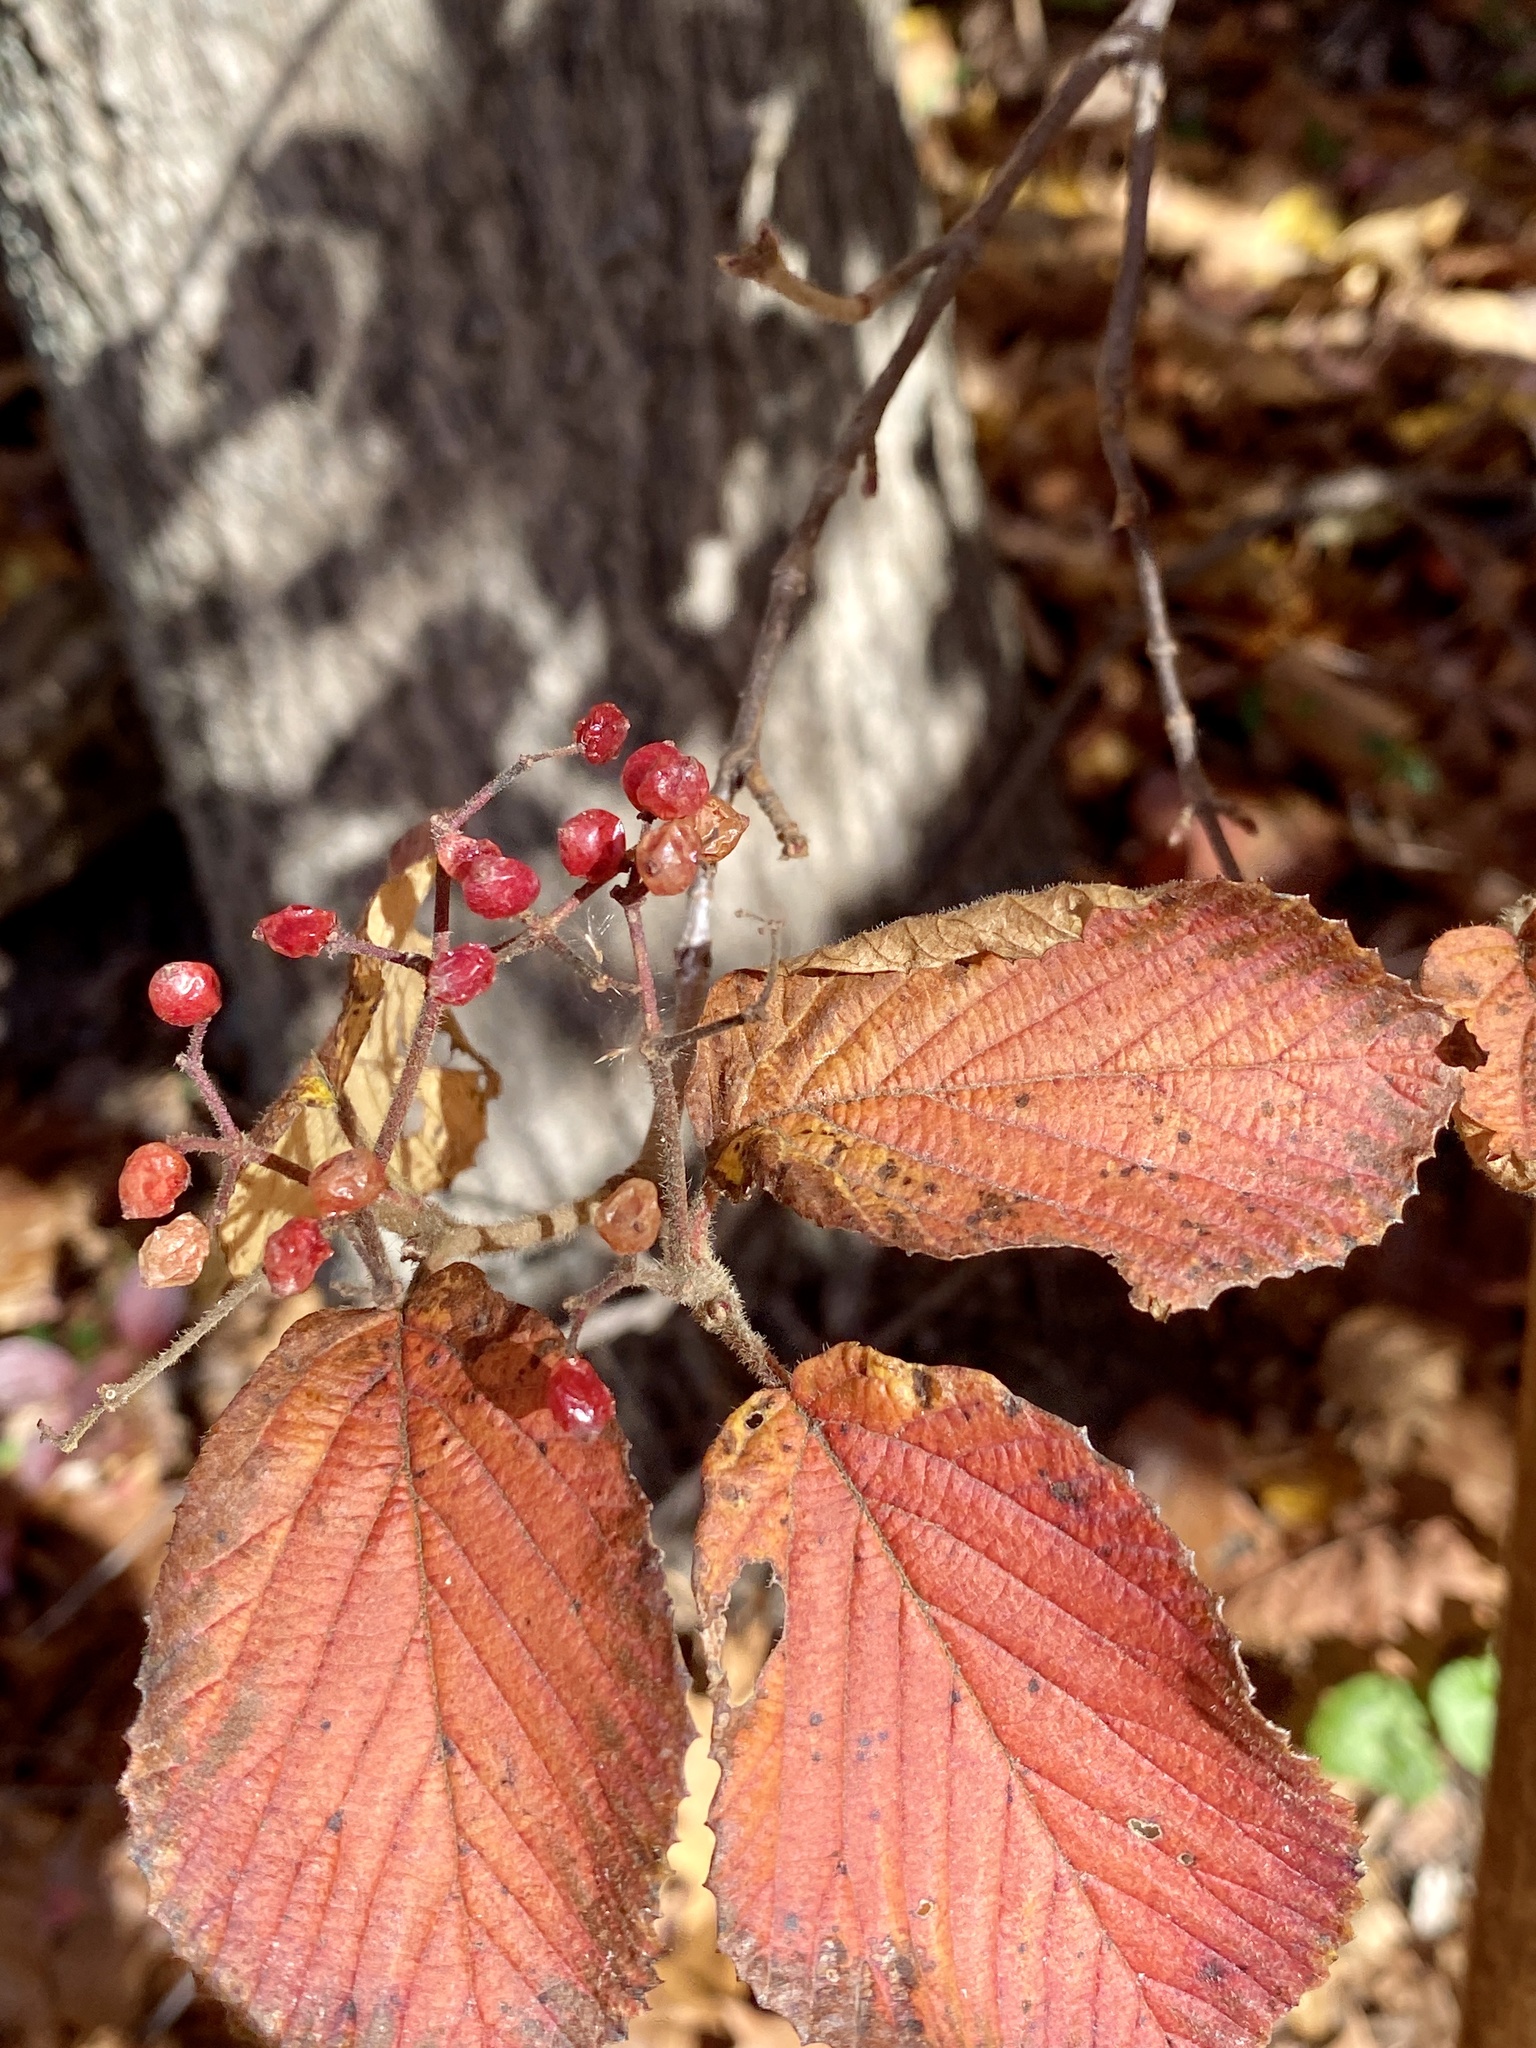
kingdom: Plantae
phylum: Tracheophyta
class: Magnoliopsida
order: Dipsacales
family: Viburnaceae
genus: Viburnum
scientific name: Viburnum dilatatum
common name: Linden arrowwood
